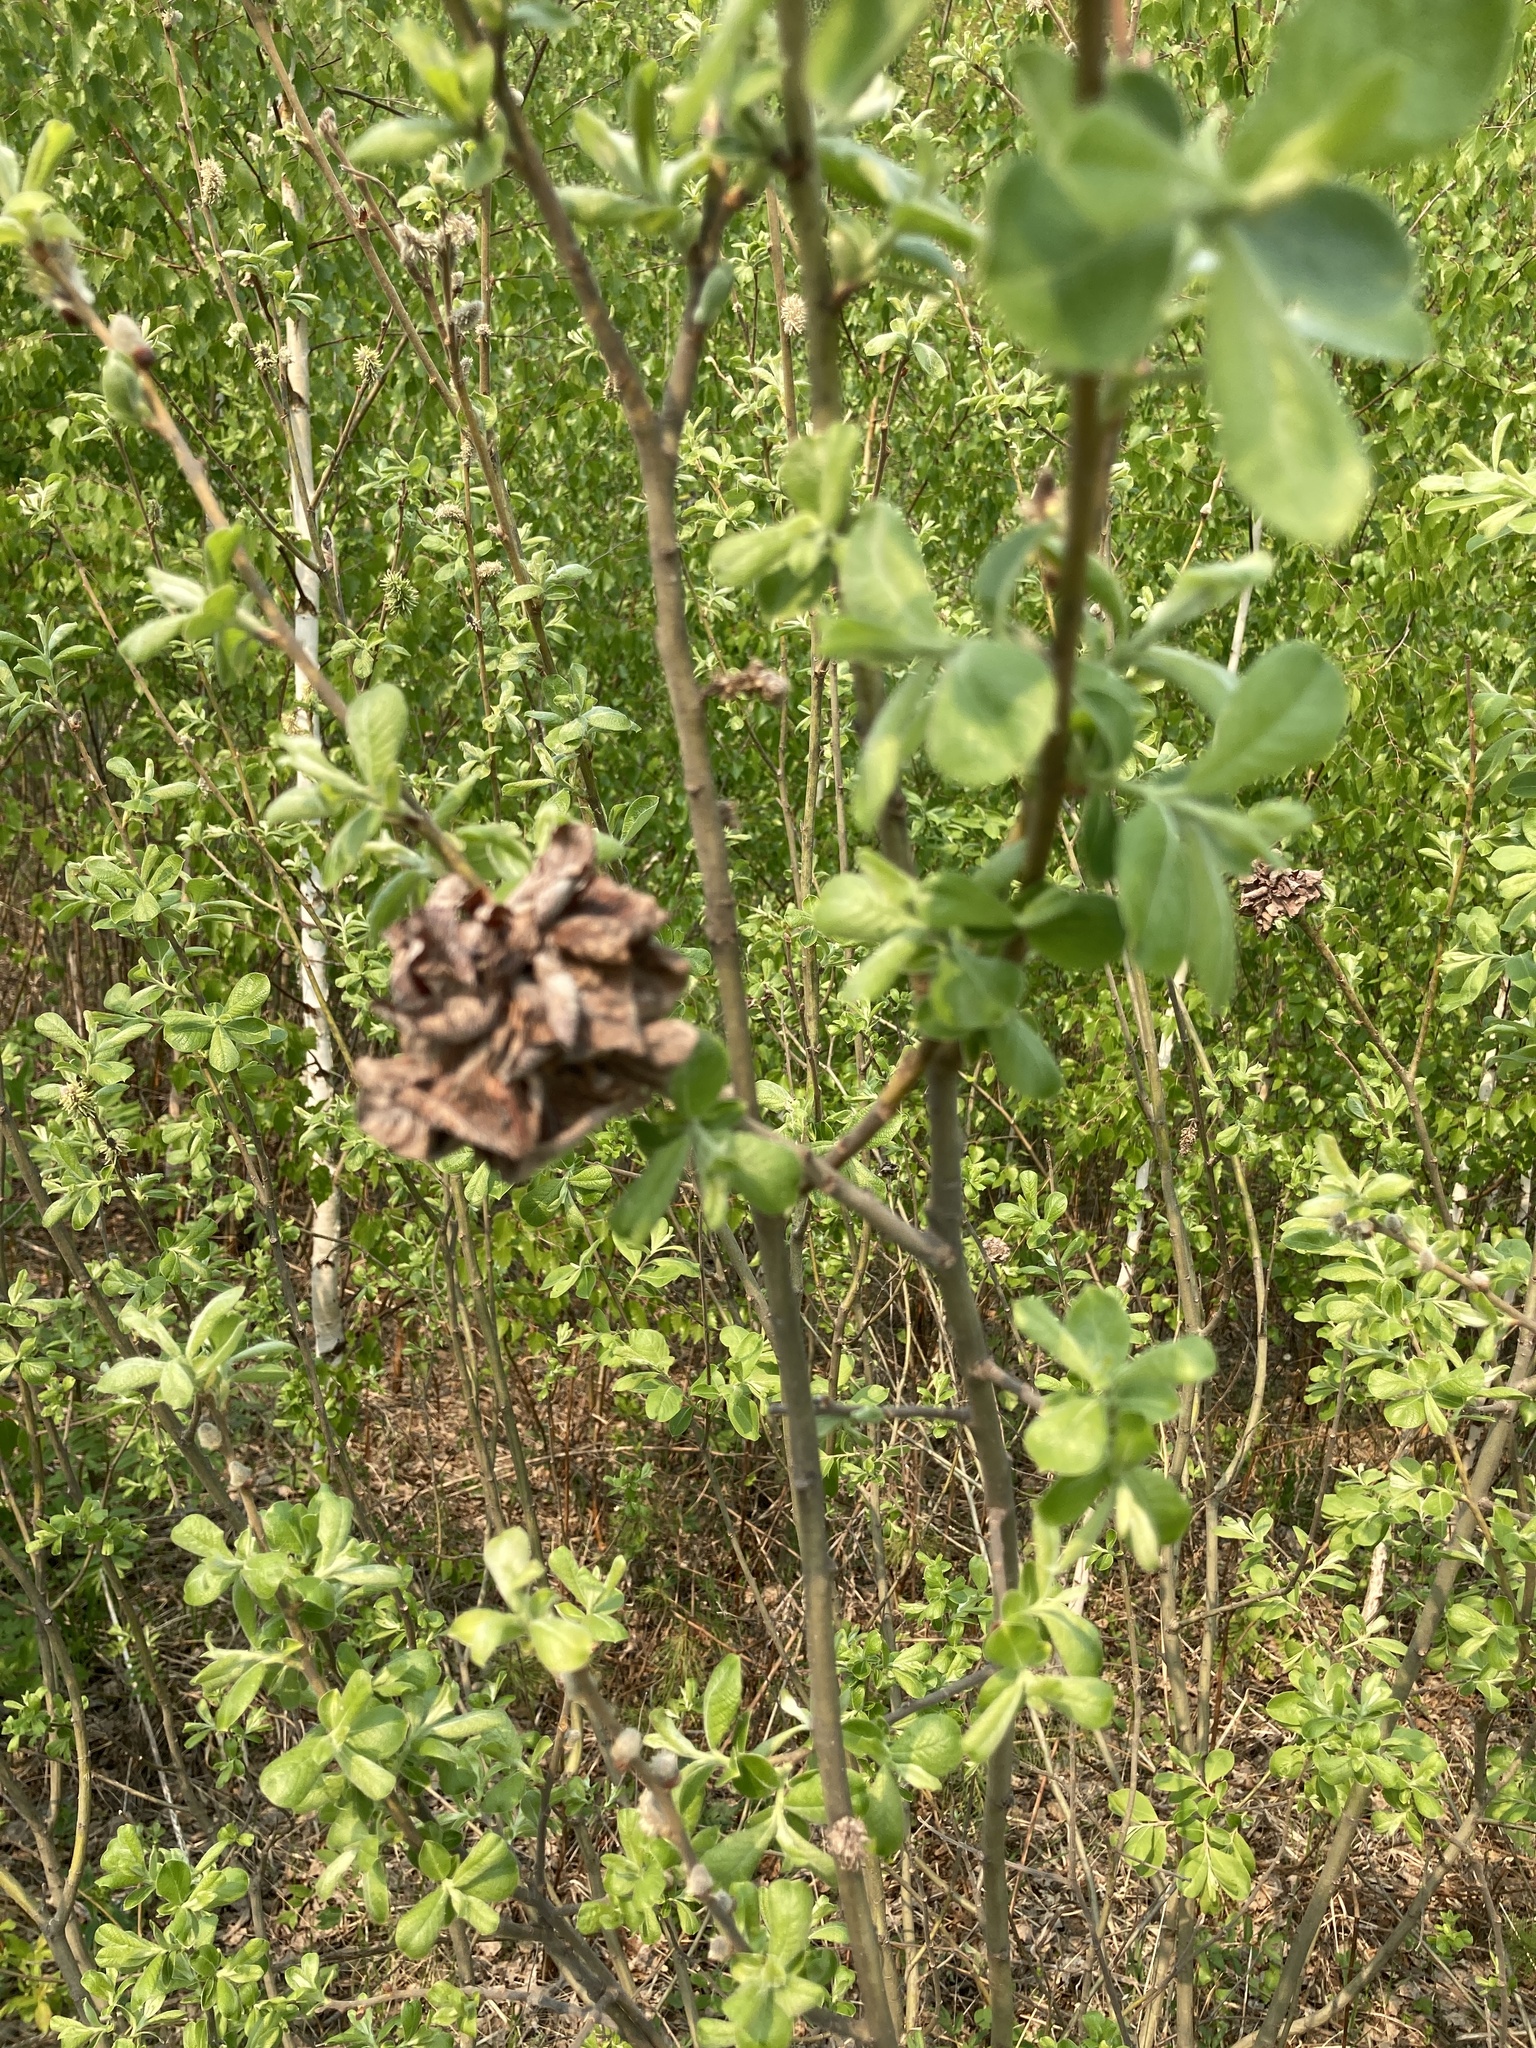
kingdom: Animalia
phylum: Arthropoda
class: Insecta
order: Diptera
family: Cecidomyiidae
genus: Rabdophaga
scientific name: Rabdophaga rosaria
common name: Willow rose gall midge
